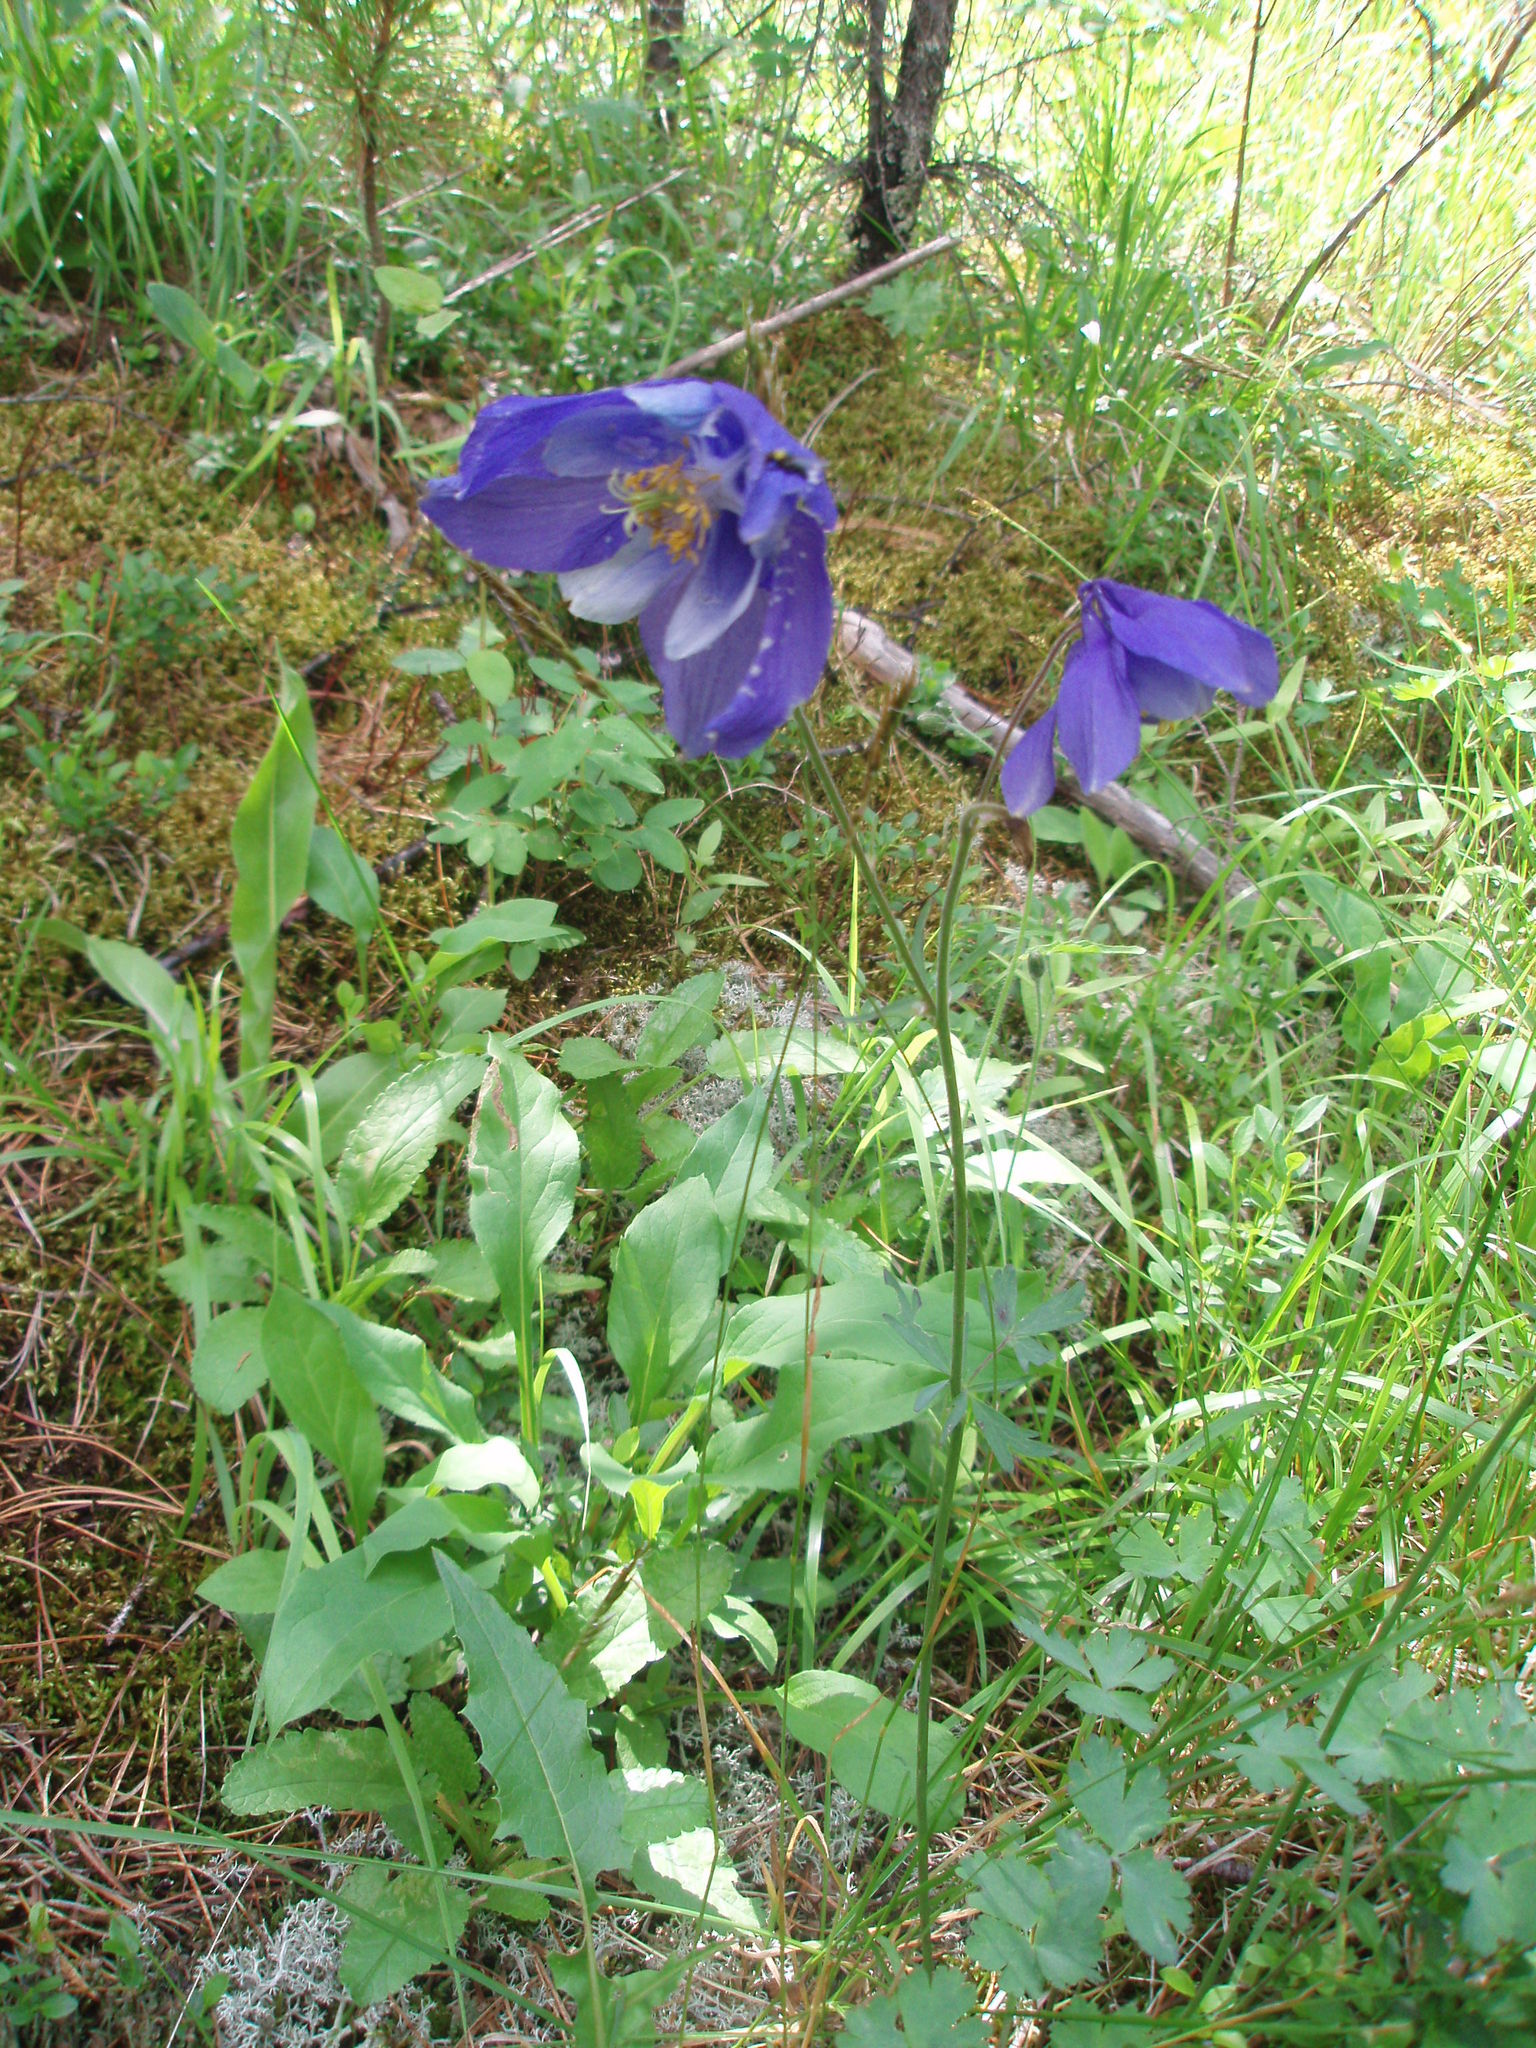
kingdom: Plantae
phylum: Tracheophyta
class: Magnoliopsida
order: Ranunculales
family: Ranunculaceae
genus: Aquilegia
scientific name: Aquilegia glandulosa
